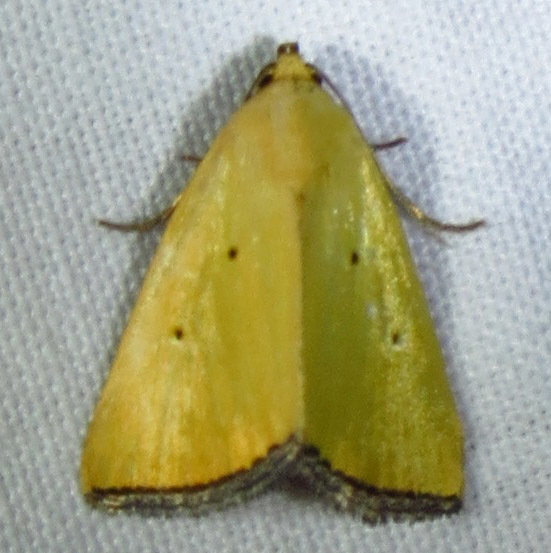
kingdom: Animalia
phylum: Arthropoda
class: Insecta
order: Lepidoptera
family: Noctuidae
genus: Marimatha
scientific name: Marimatha nigrofimbria
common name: Black-bordered lemon moth
